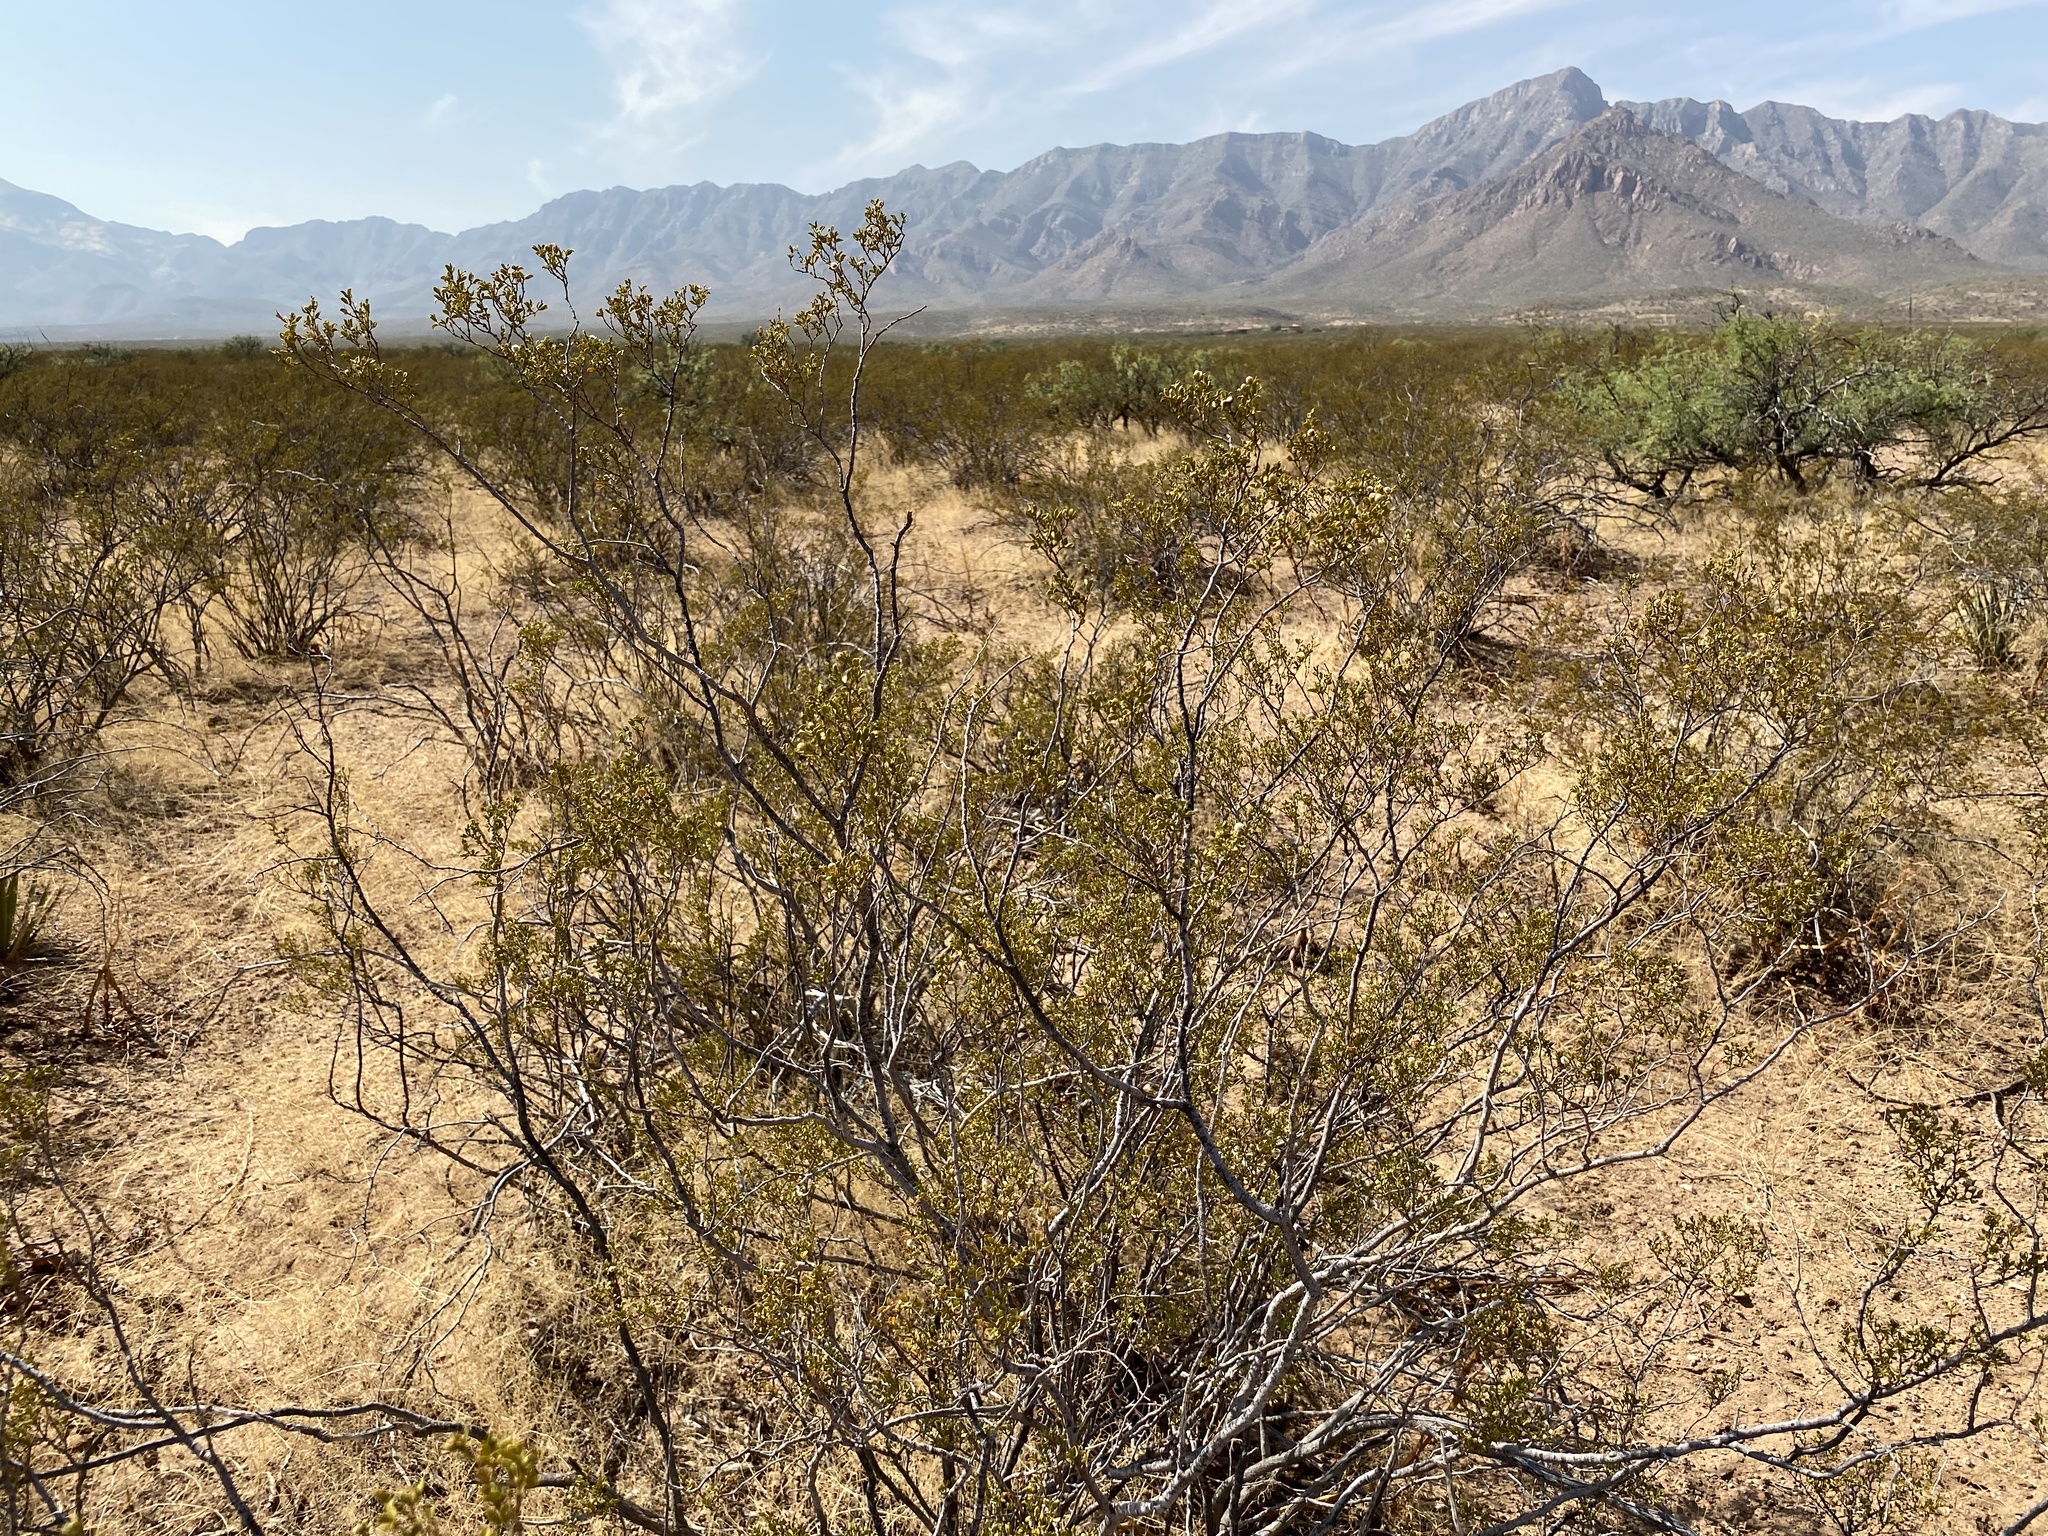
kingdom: Plantae
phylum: Tracheophyta
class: Magnoliopsida
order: Zygophyllales
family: Zygophyllaceae
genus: Larrea
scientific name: Larrea tridentata
